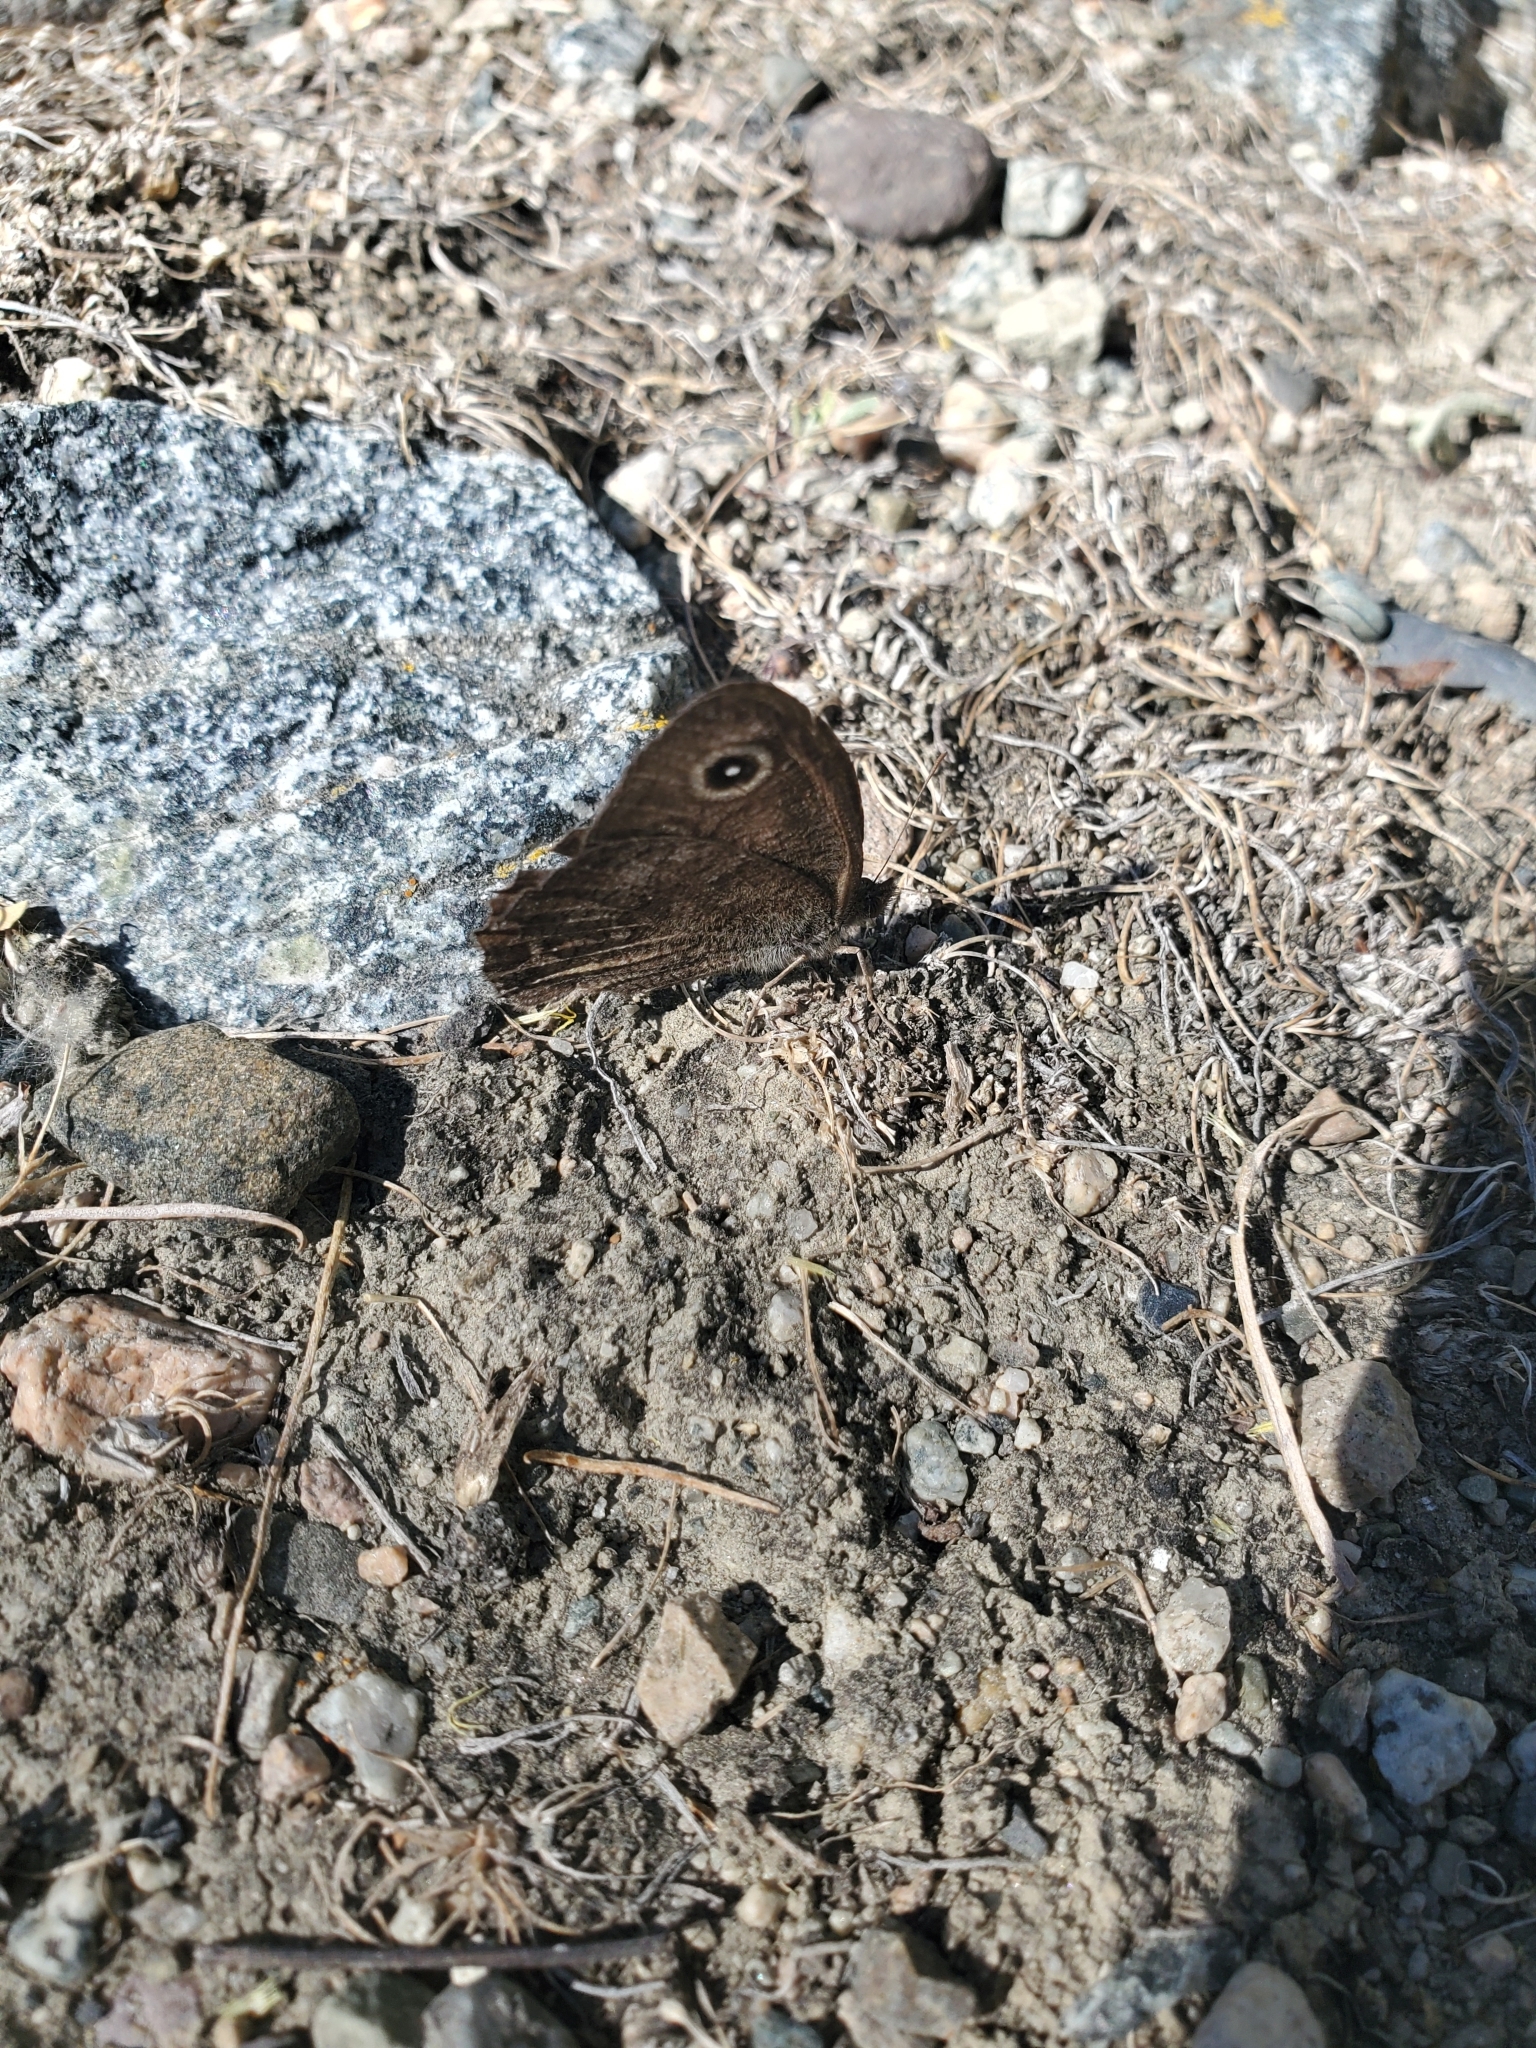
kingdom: Animalia
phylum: Arthropoda
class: Insecta
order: Lepidoptera
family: Nymphalidae
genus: Cercyonis
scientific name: Cercyonis oetus
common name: Small wood-nymph
